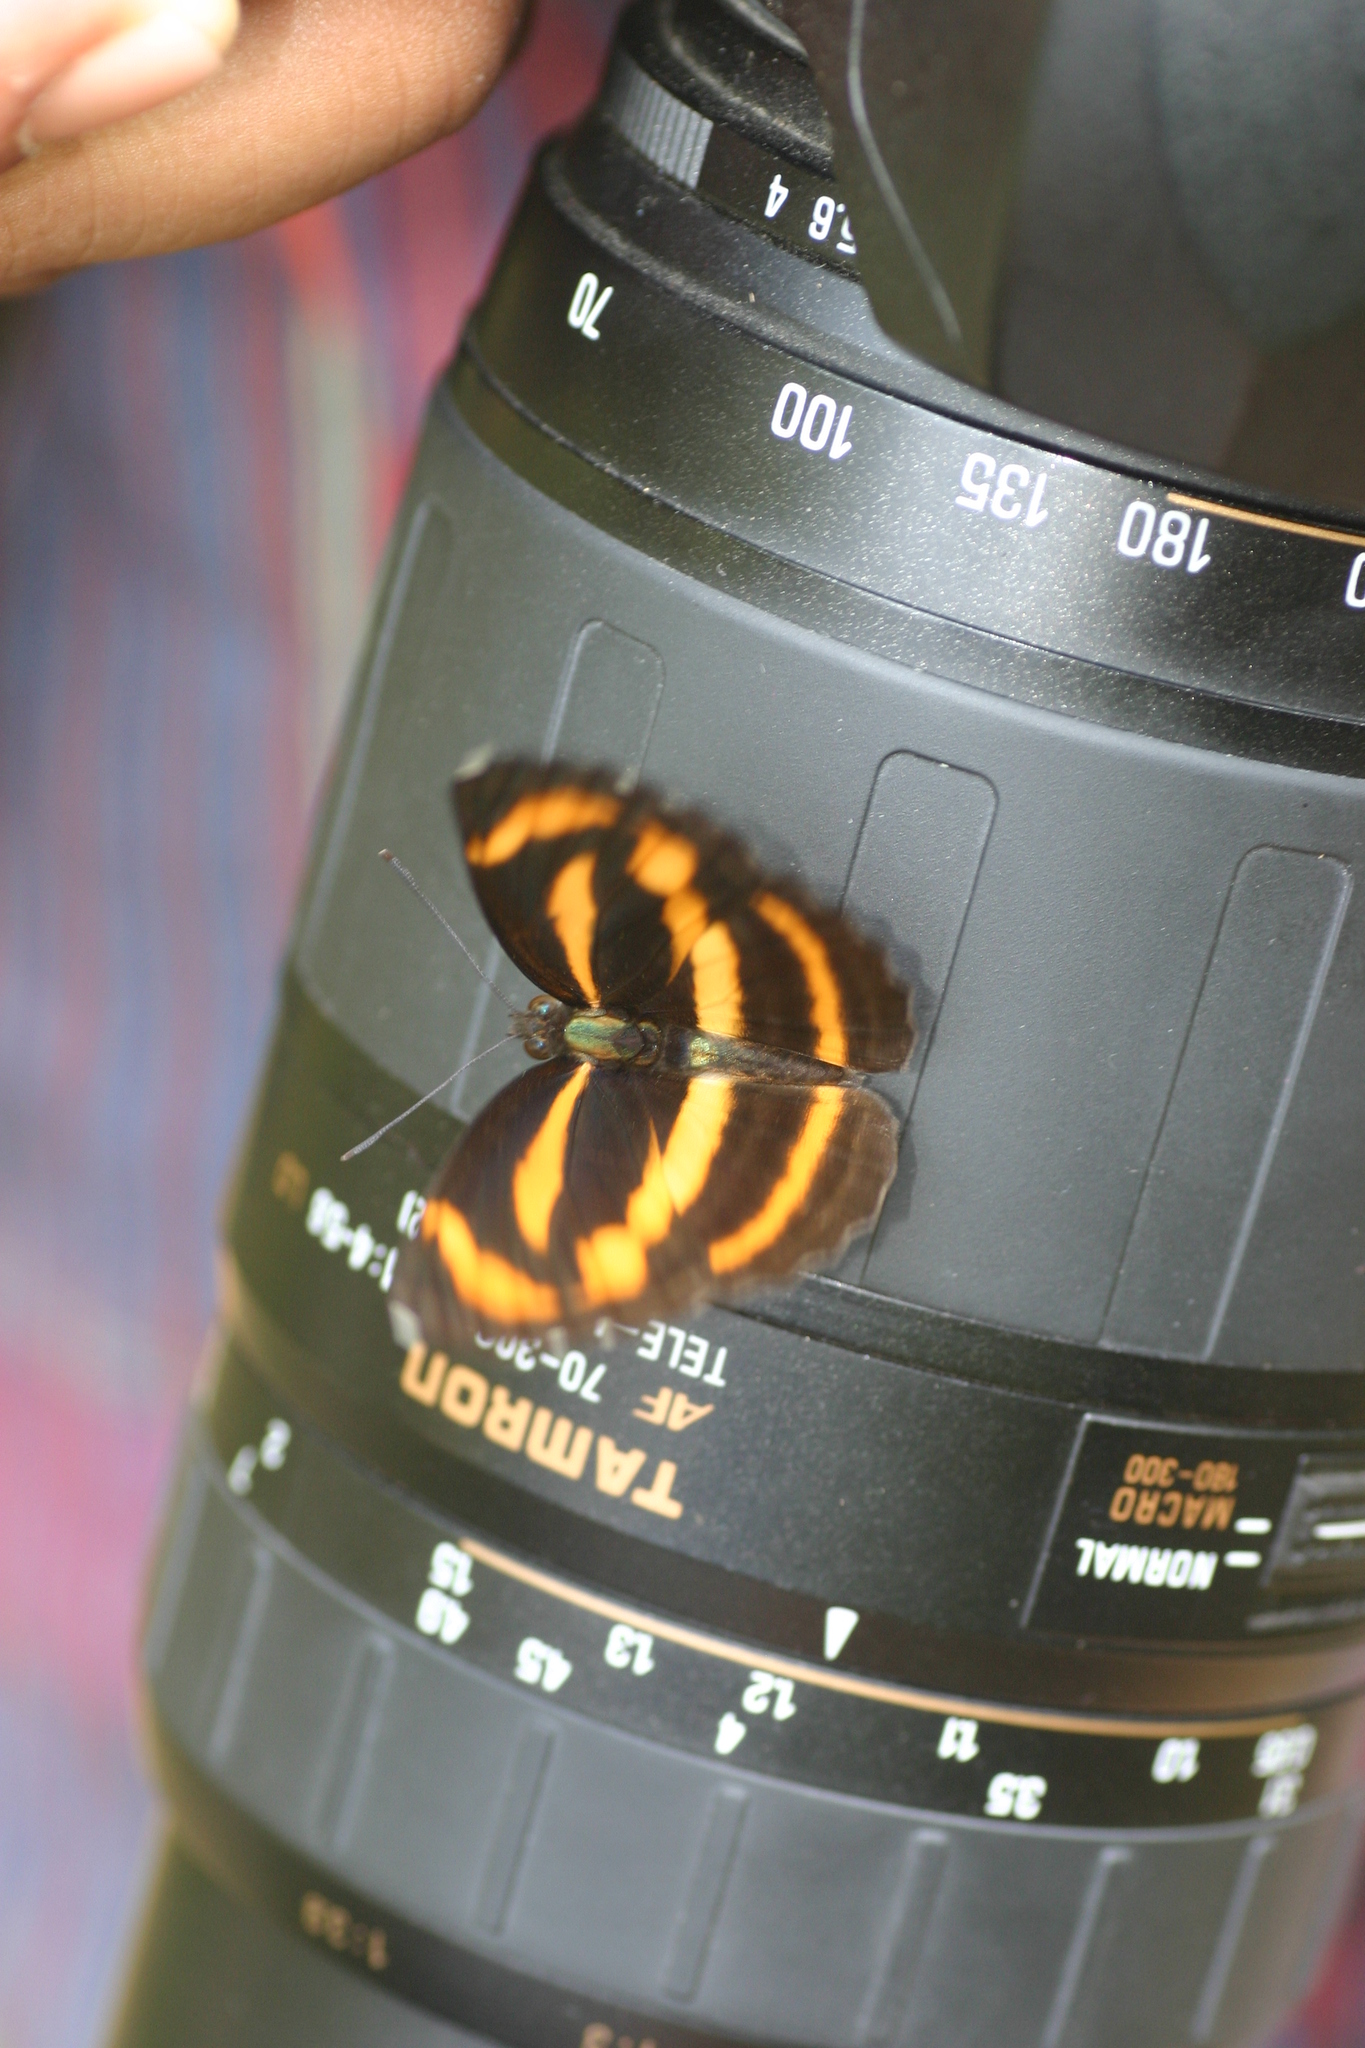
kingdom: Animalia
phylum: Arthropoda
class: Insecta
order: Lepidoptera
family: Nymphalidae
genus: Neptis
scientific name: Neptis miah
